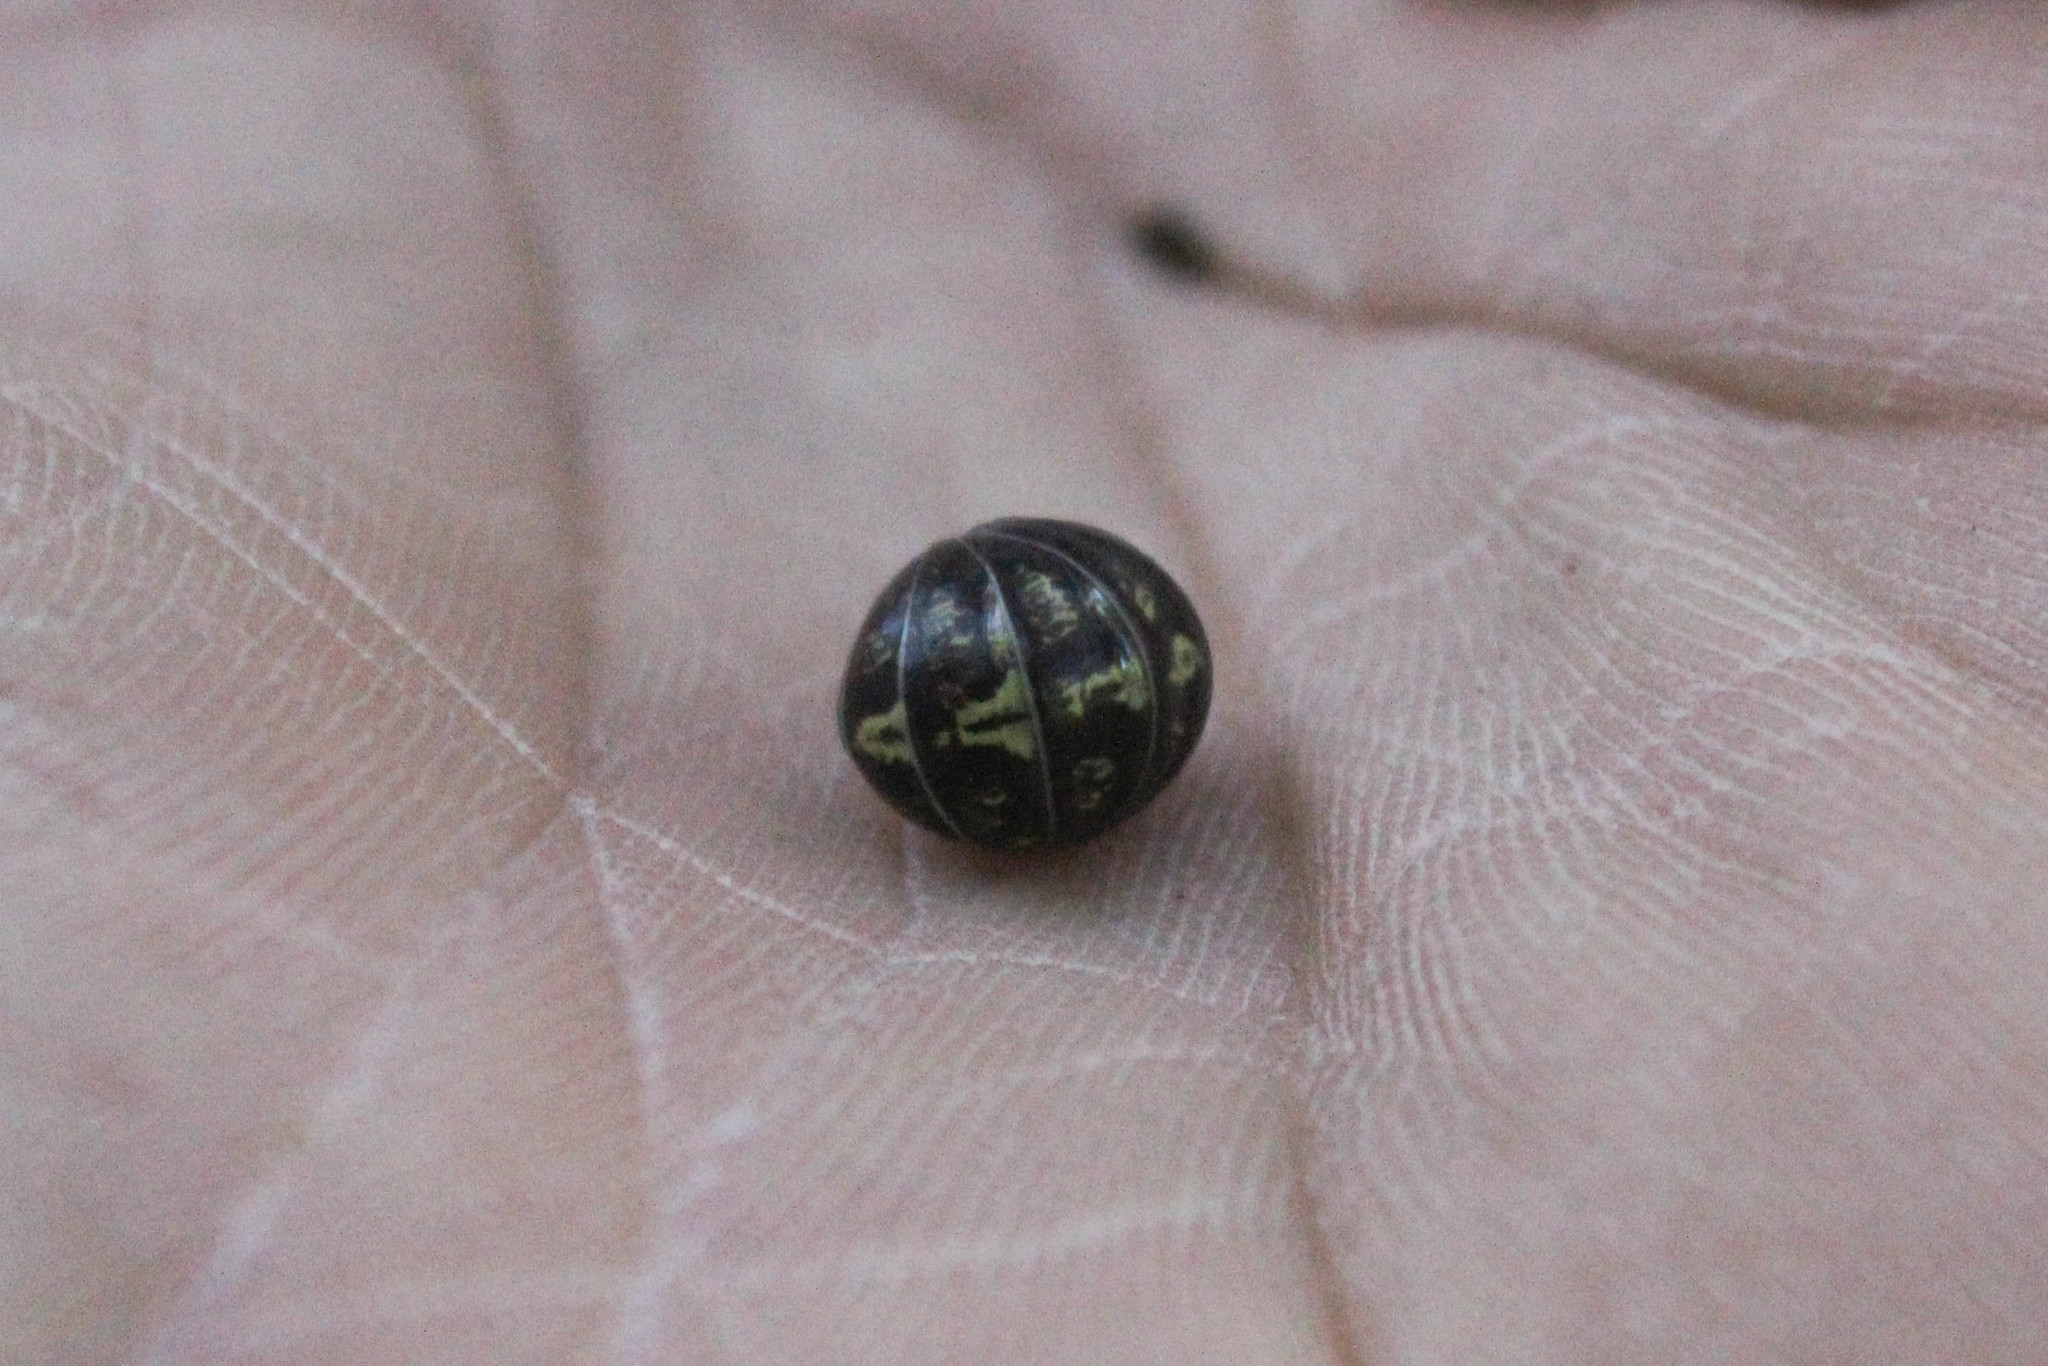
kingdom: Animalia
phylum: Arthropoda
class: Malacostraca
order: Isopoda
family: Armadillidiidae
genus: Armadillidium
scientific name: Armadillidium vulgare
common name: Common pill woodlouse
